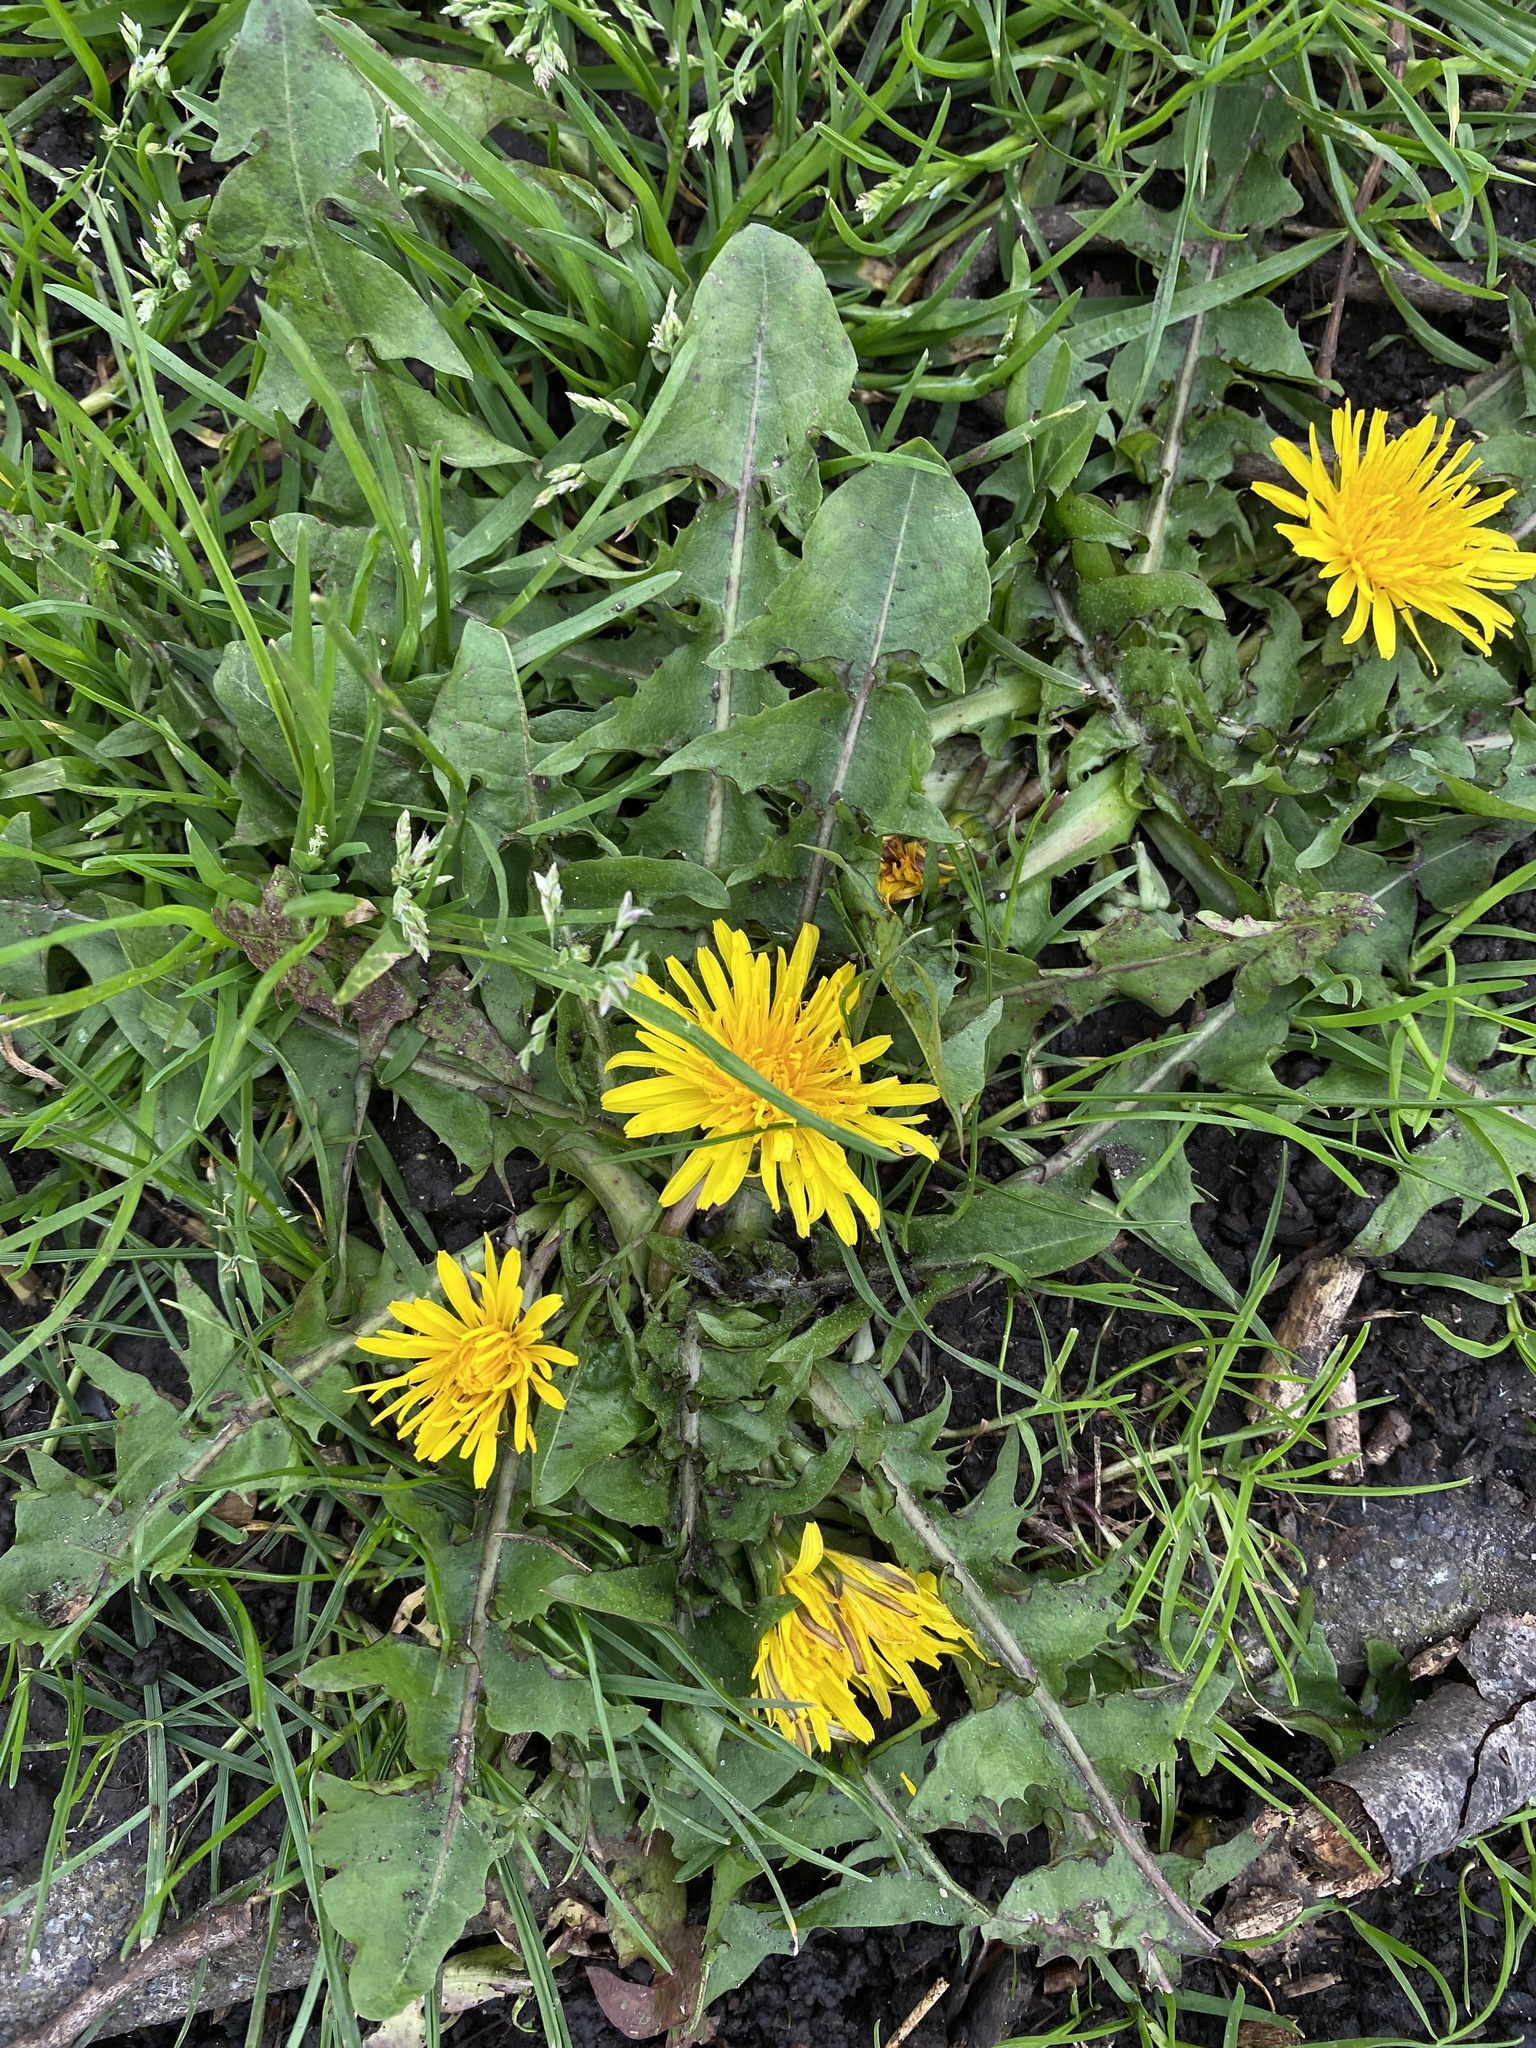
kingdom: Plantae
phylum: Tracheophyta
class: Magnoliopsida
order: Asterales
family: Asteraceae
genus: Taraxacum
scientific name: Taraxacum officinale
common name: Common dandelion
